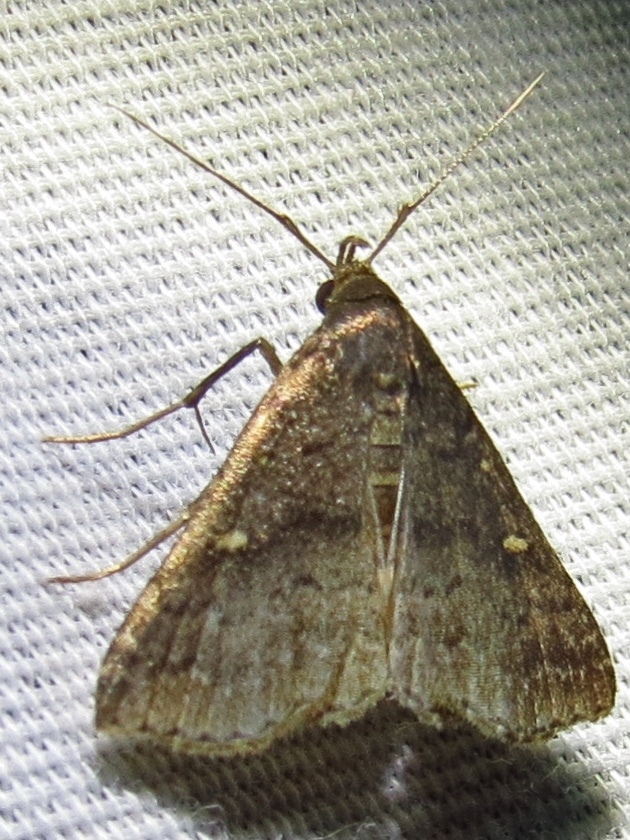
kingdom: Animalia
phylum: Arthropoda
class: Insecta
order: Lepidoptera
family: Erebidae
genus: Tetanolita
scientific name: Tetanolita mynesalis
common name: Smoky tetanolita moth
